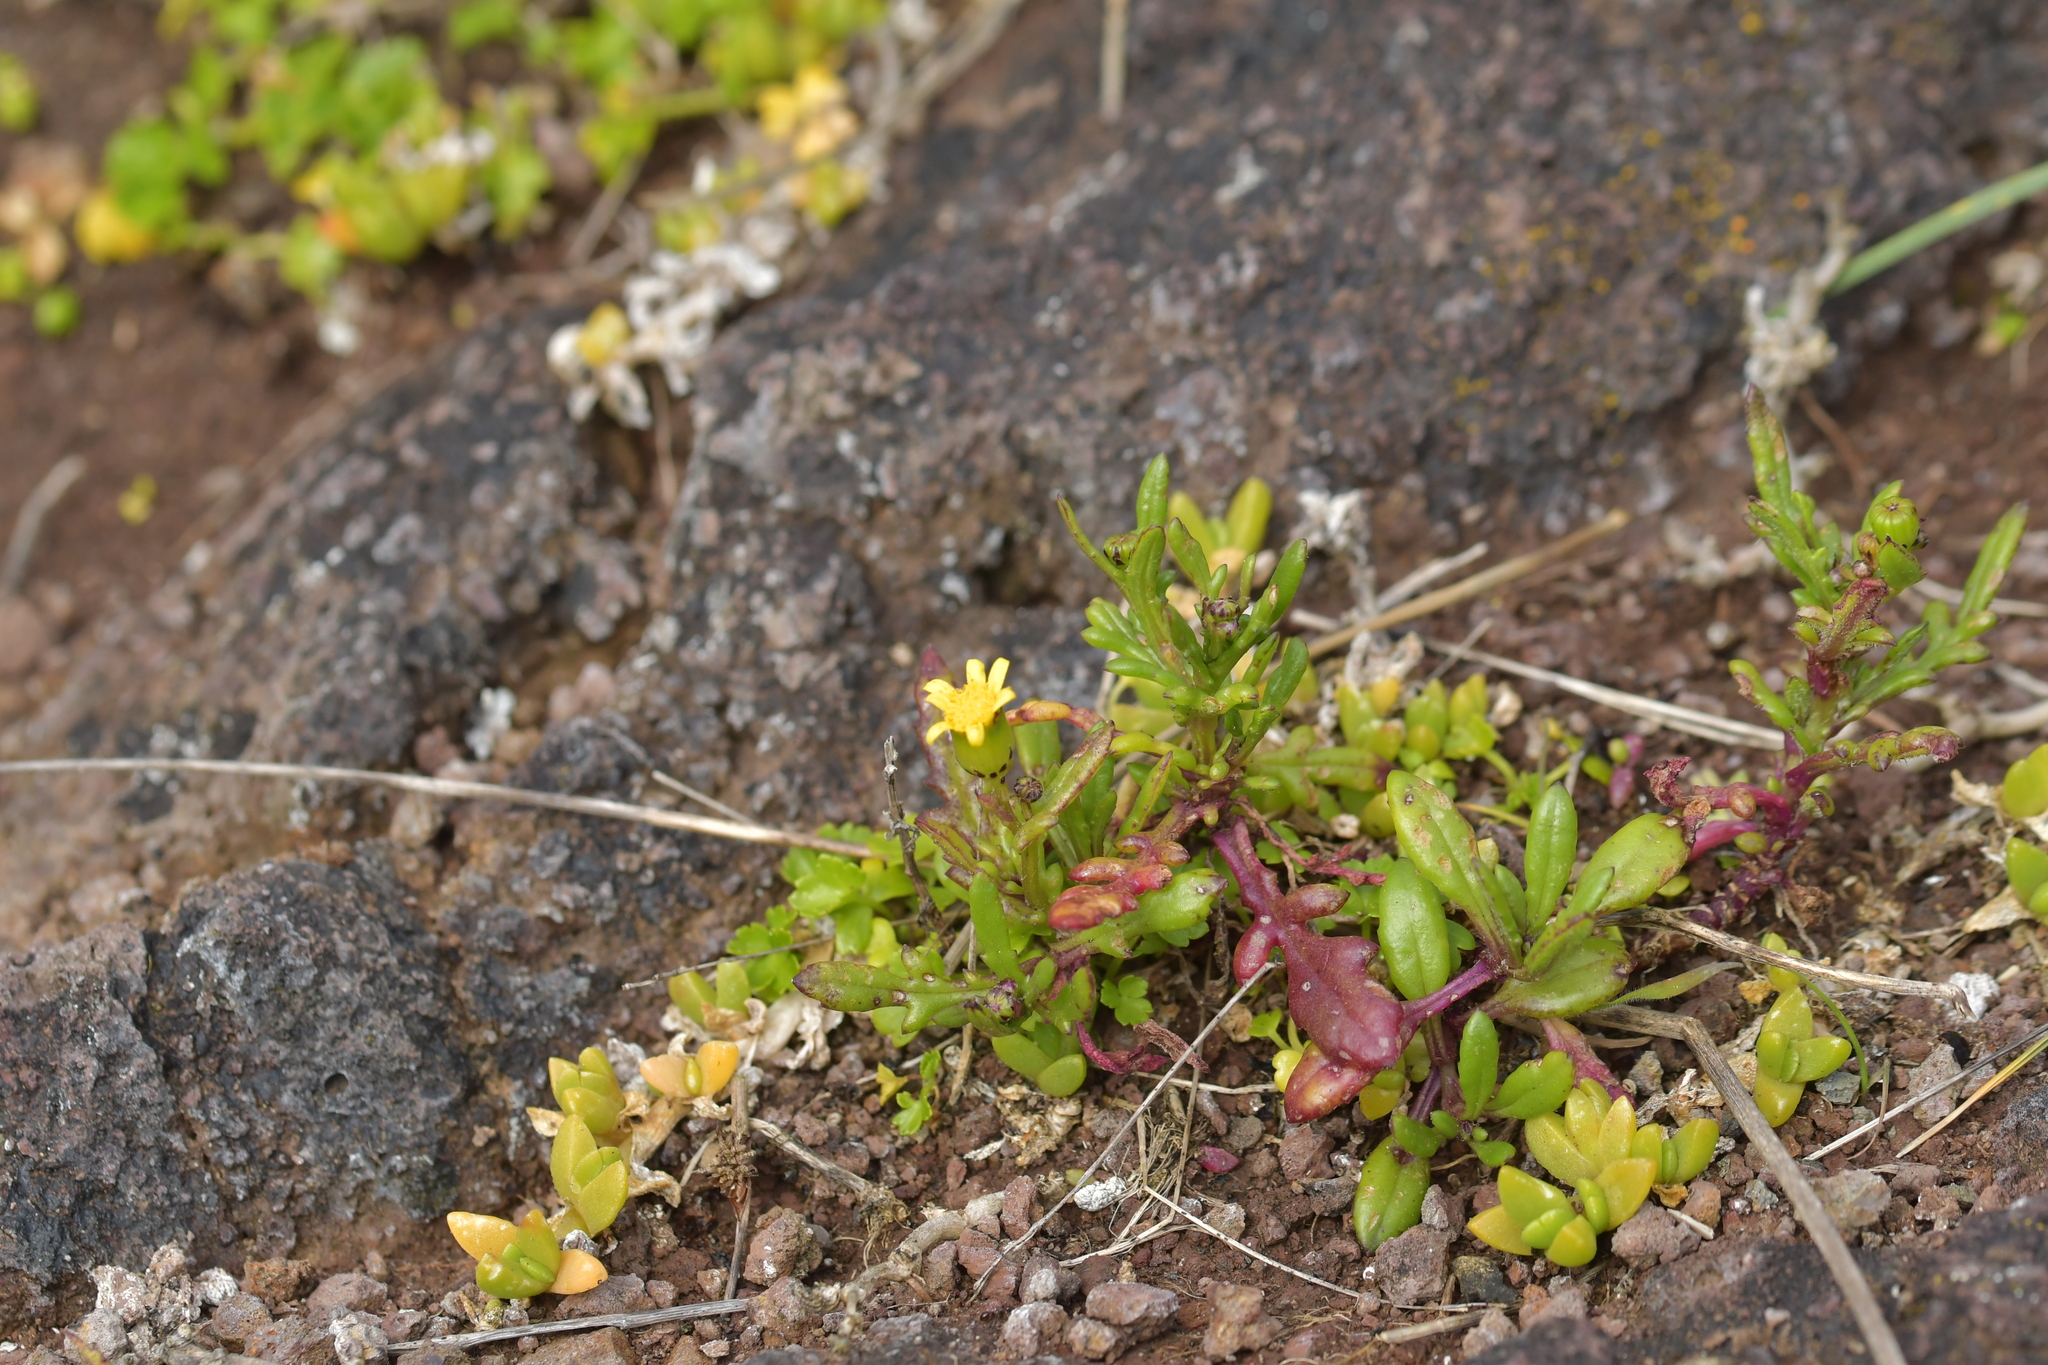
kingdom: Plantae
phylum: Tracheophyta
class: Magnoliopsida
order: Asterales
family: Asteraceae
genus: Senecio
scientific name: Senecio lautus
